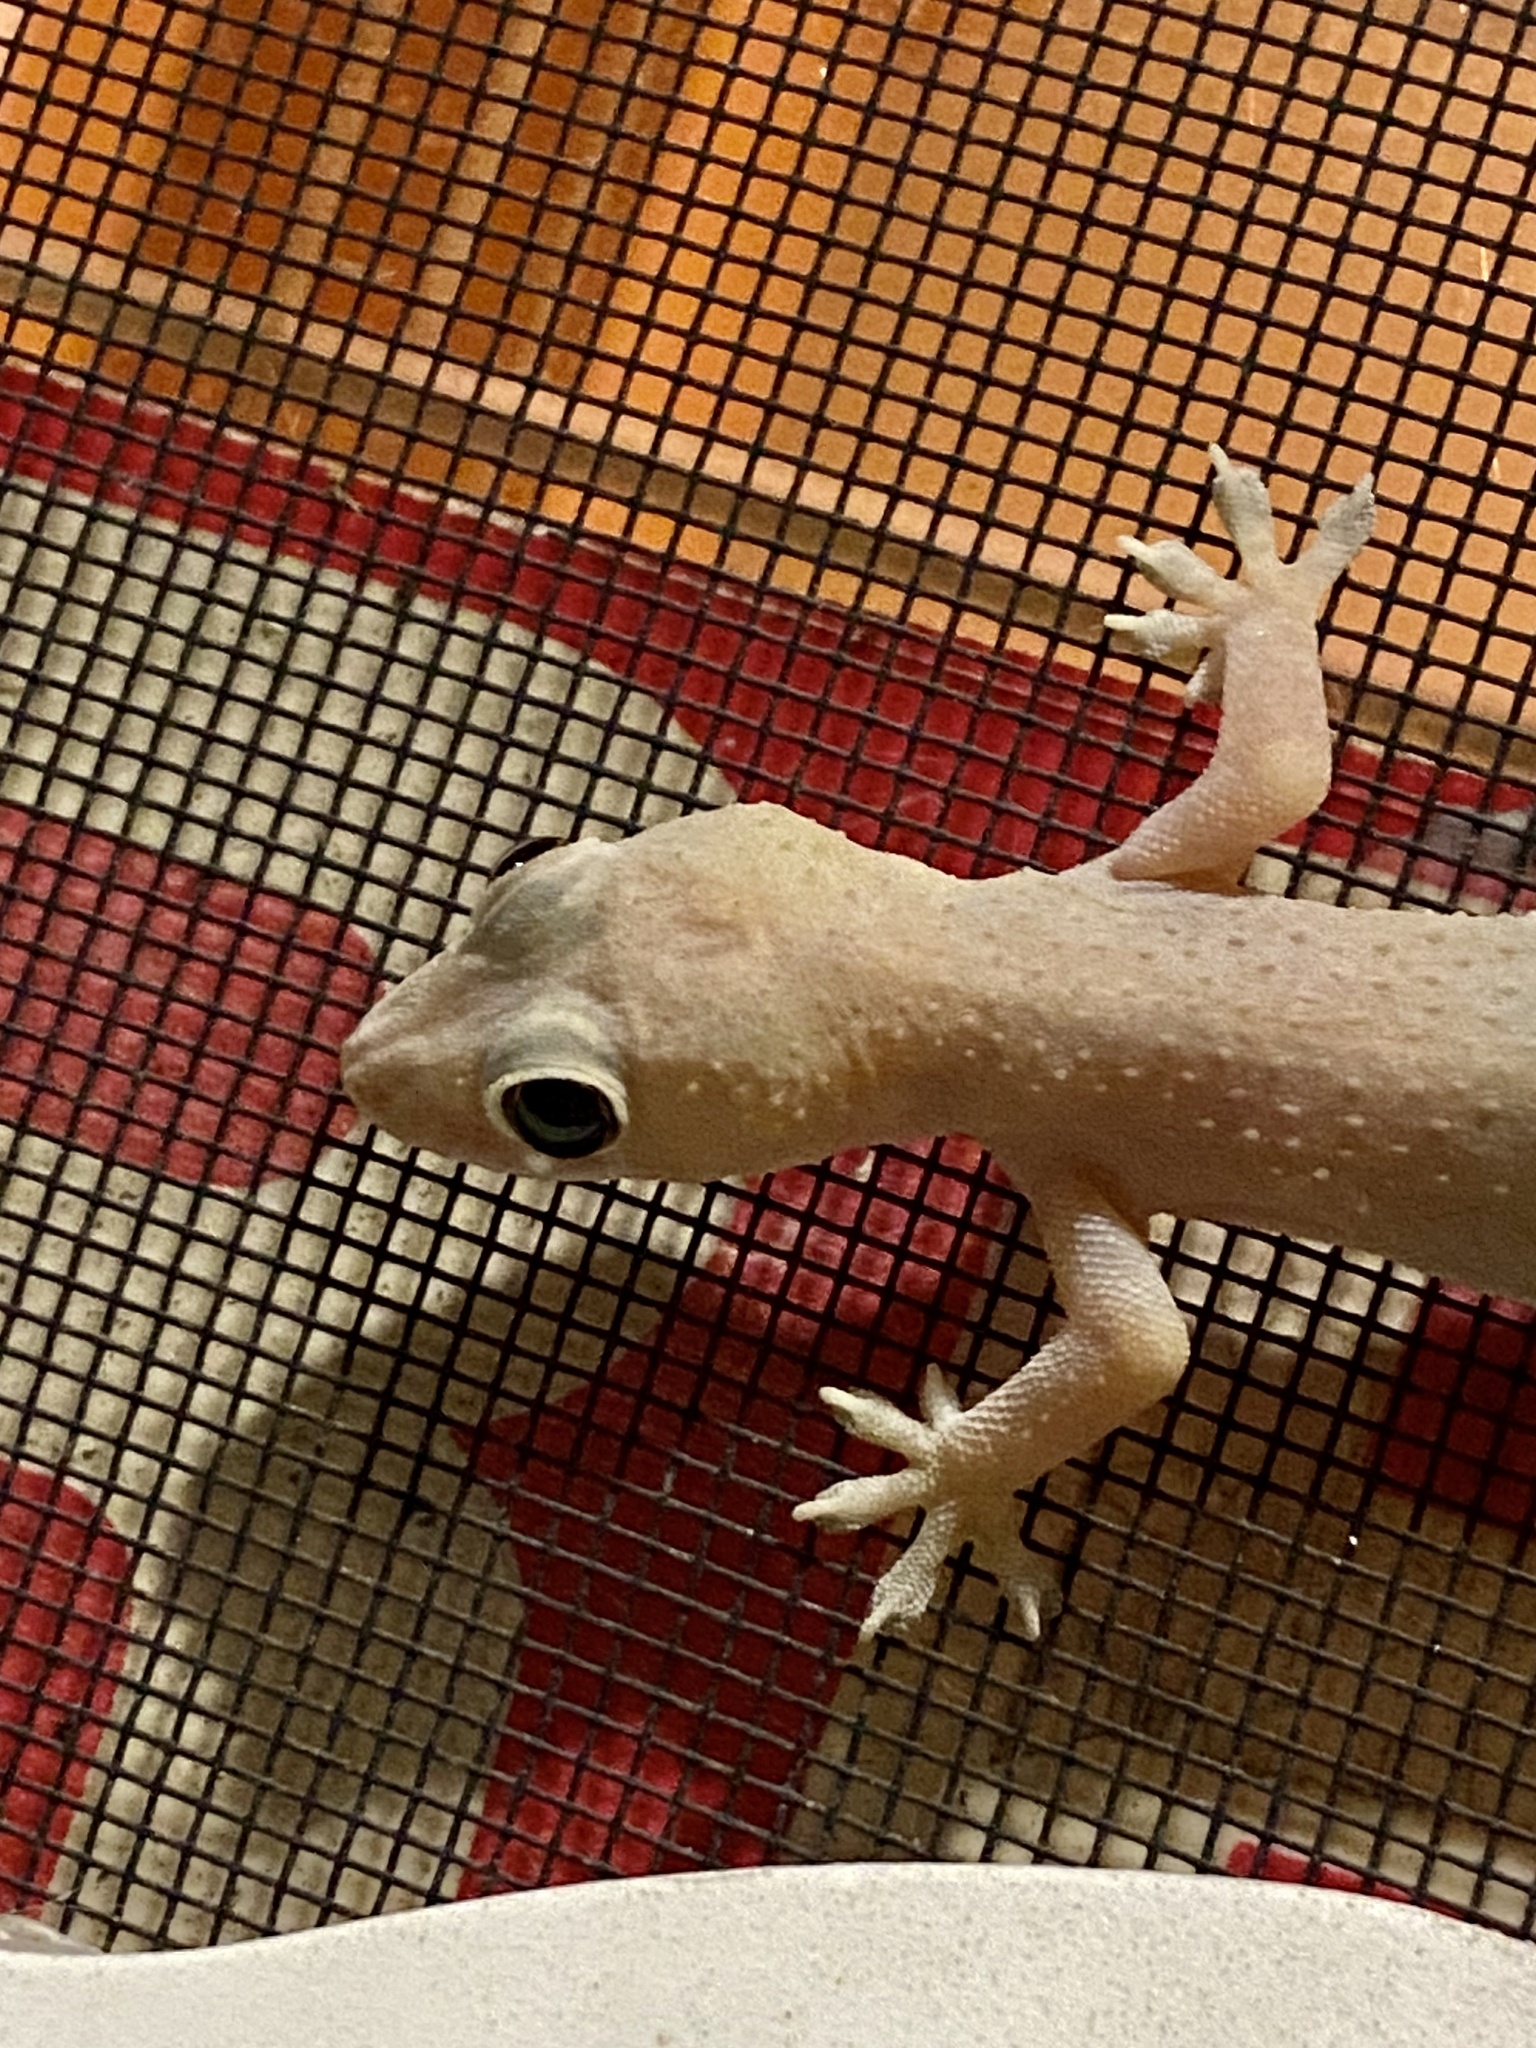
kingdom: Animalia
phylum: Chordata
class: Squamata
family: Gekkonidae
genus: Hemidactylus
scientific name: Hemidactylus mabouia
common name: House gecko
